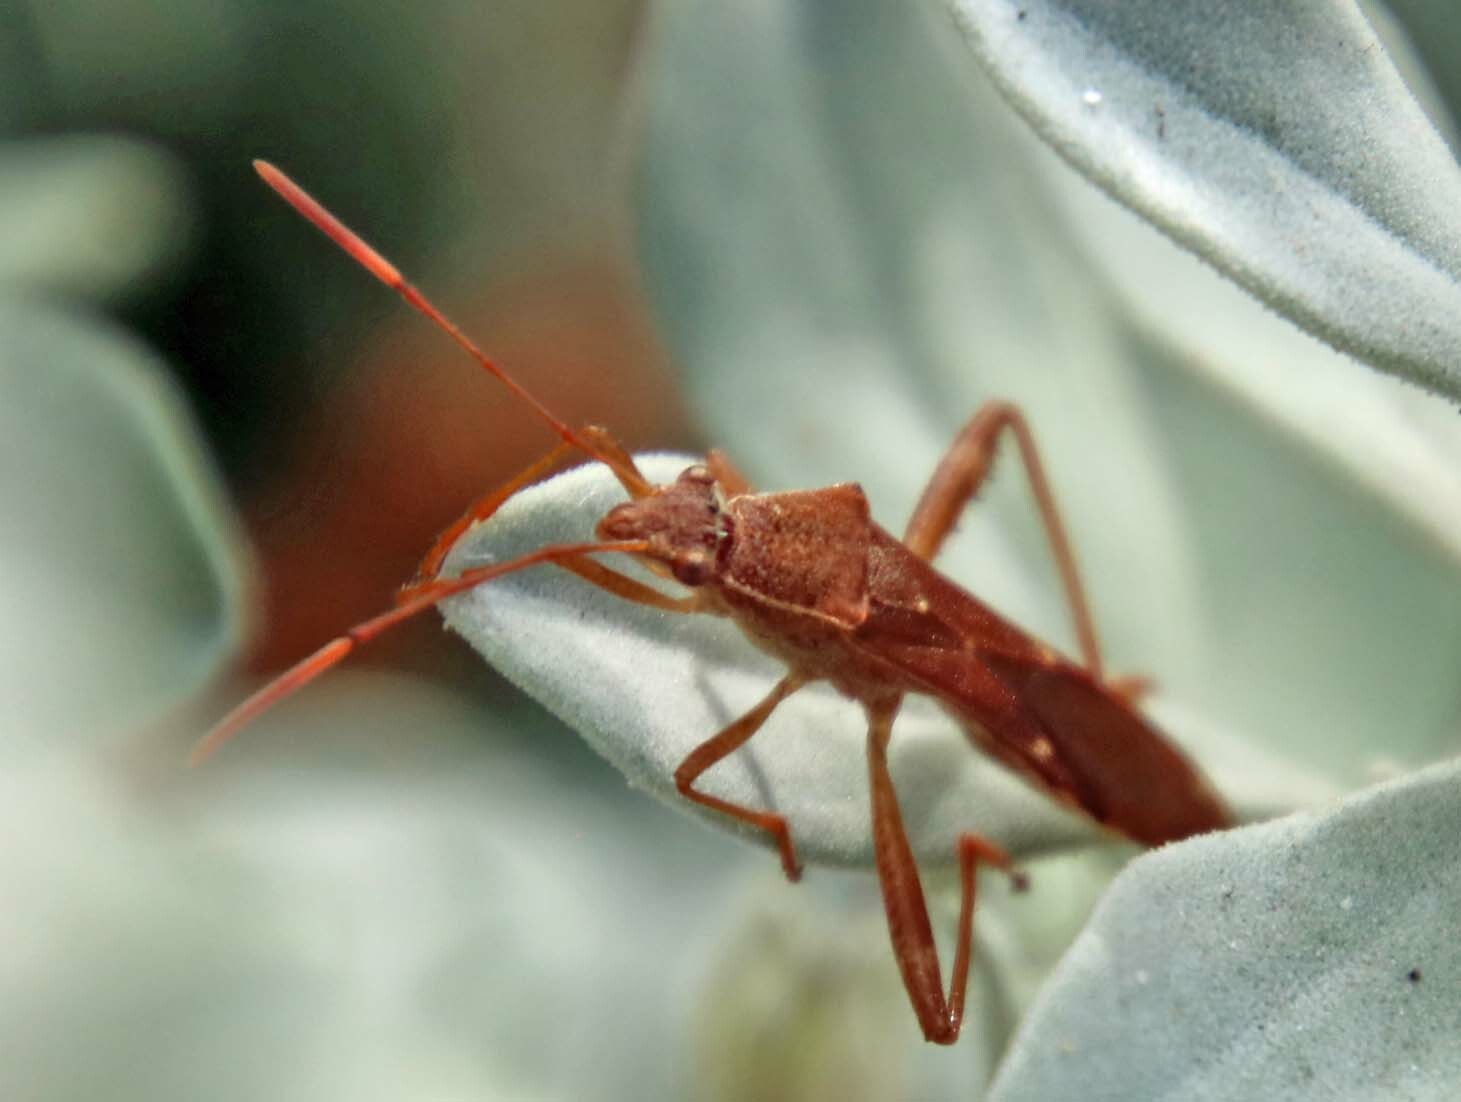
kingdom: Animalia
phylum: Arthropoda
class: Insecta
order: Hemiptera
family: Alydidae
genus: Burtinus
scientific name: Burtinus notatipennis
